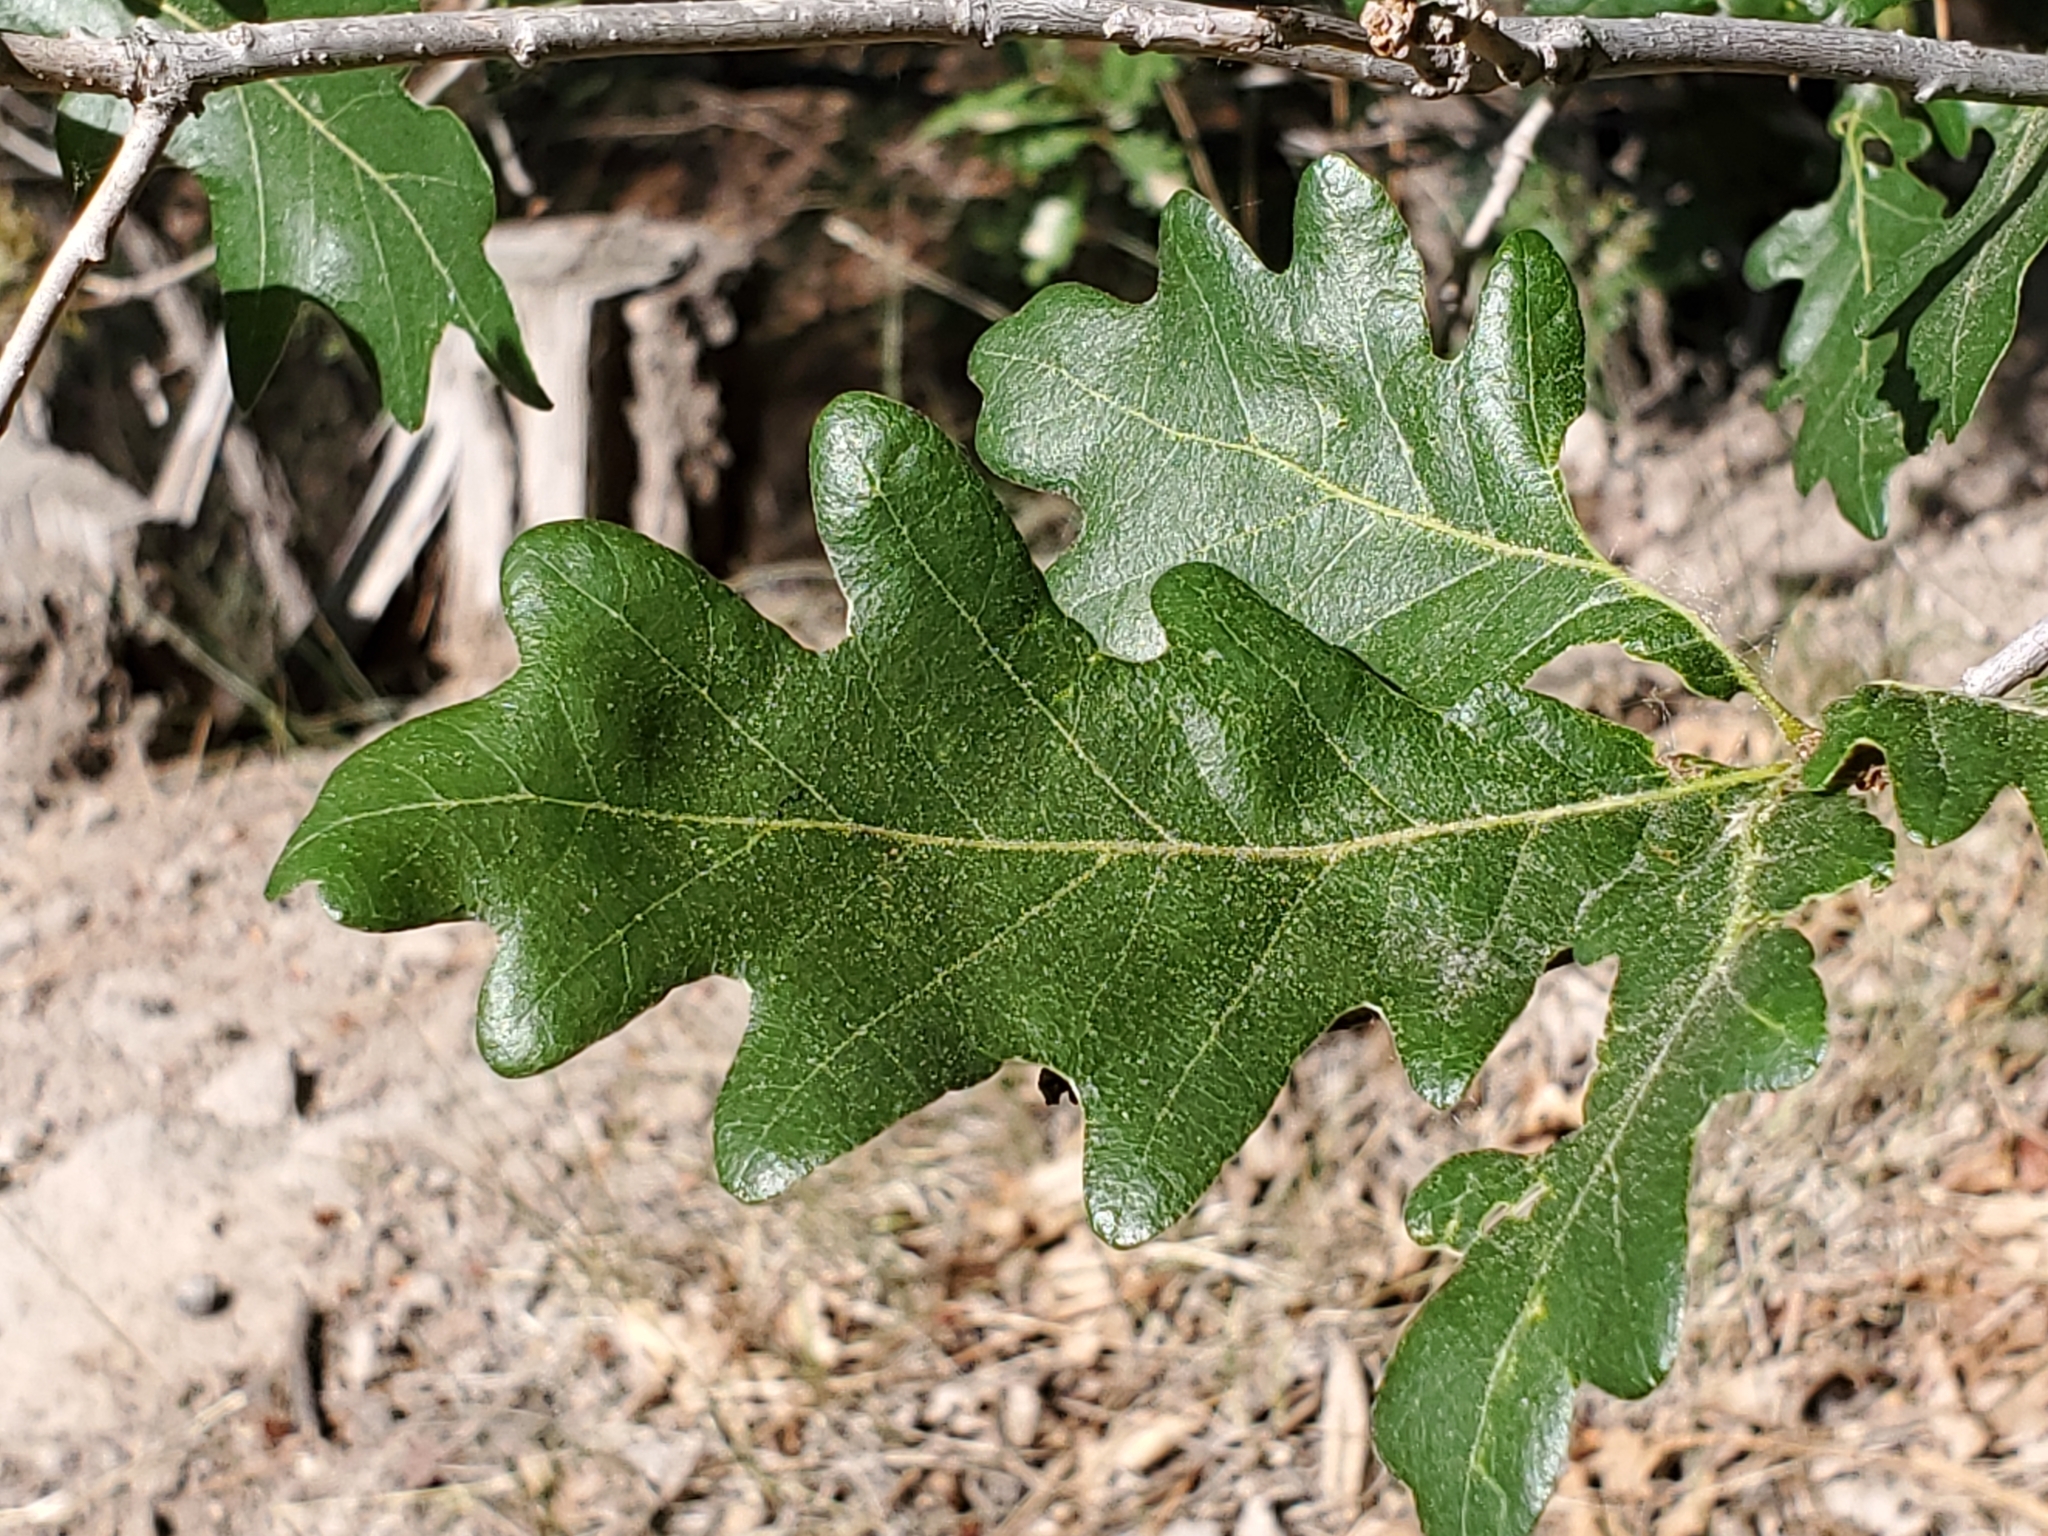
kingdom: Plantae
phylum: Tracheophyta
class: Magnoliopsida
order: Fagales
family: Fagaceae
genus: Quercus
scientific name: Quercus gambelii
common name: Gambel oak
